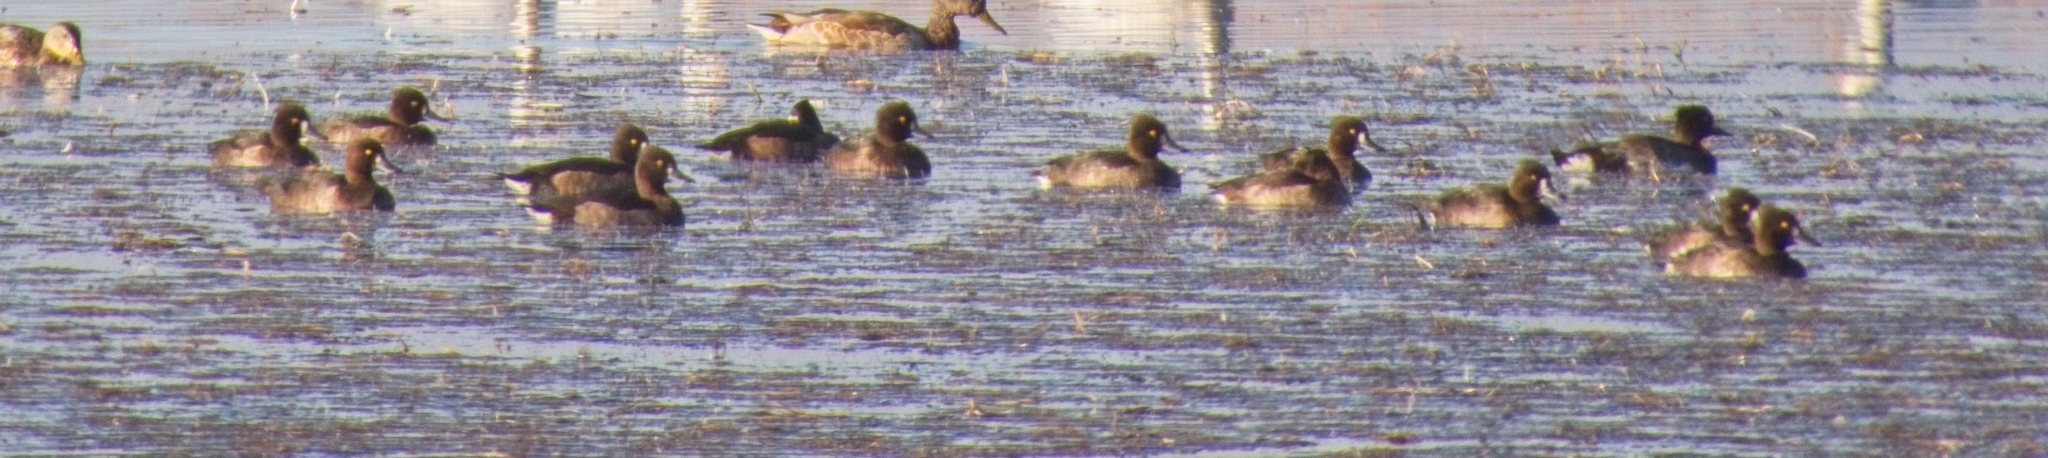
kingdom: Animalia
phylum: Chordata
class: Aves
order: Anseriformes
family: Anatidae
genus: Aythya
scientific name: Aythya fuligula
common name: Tufted duck
